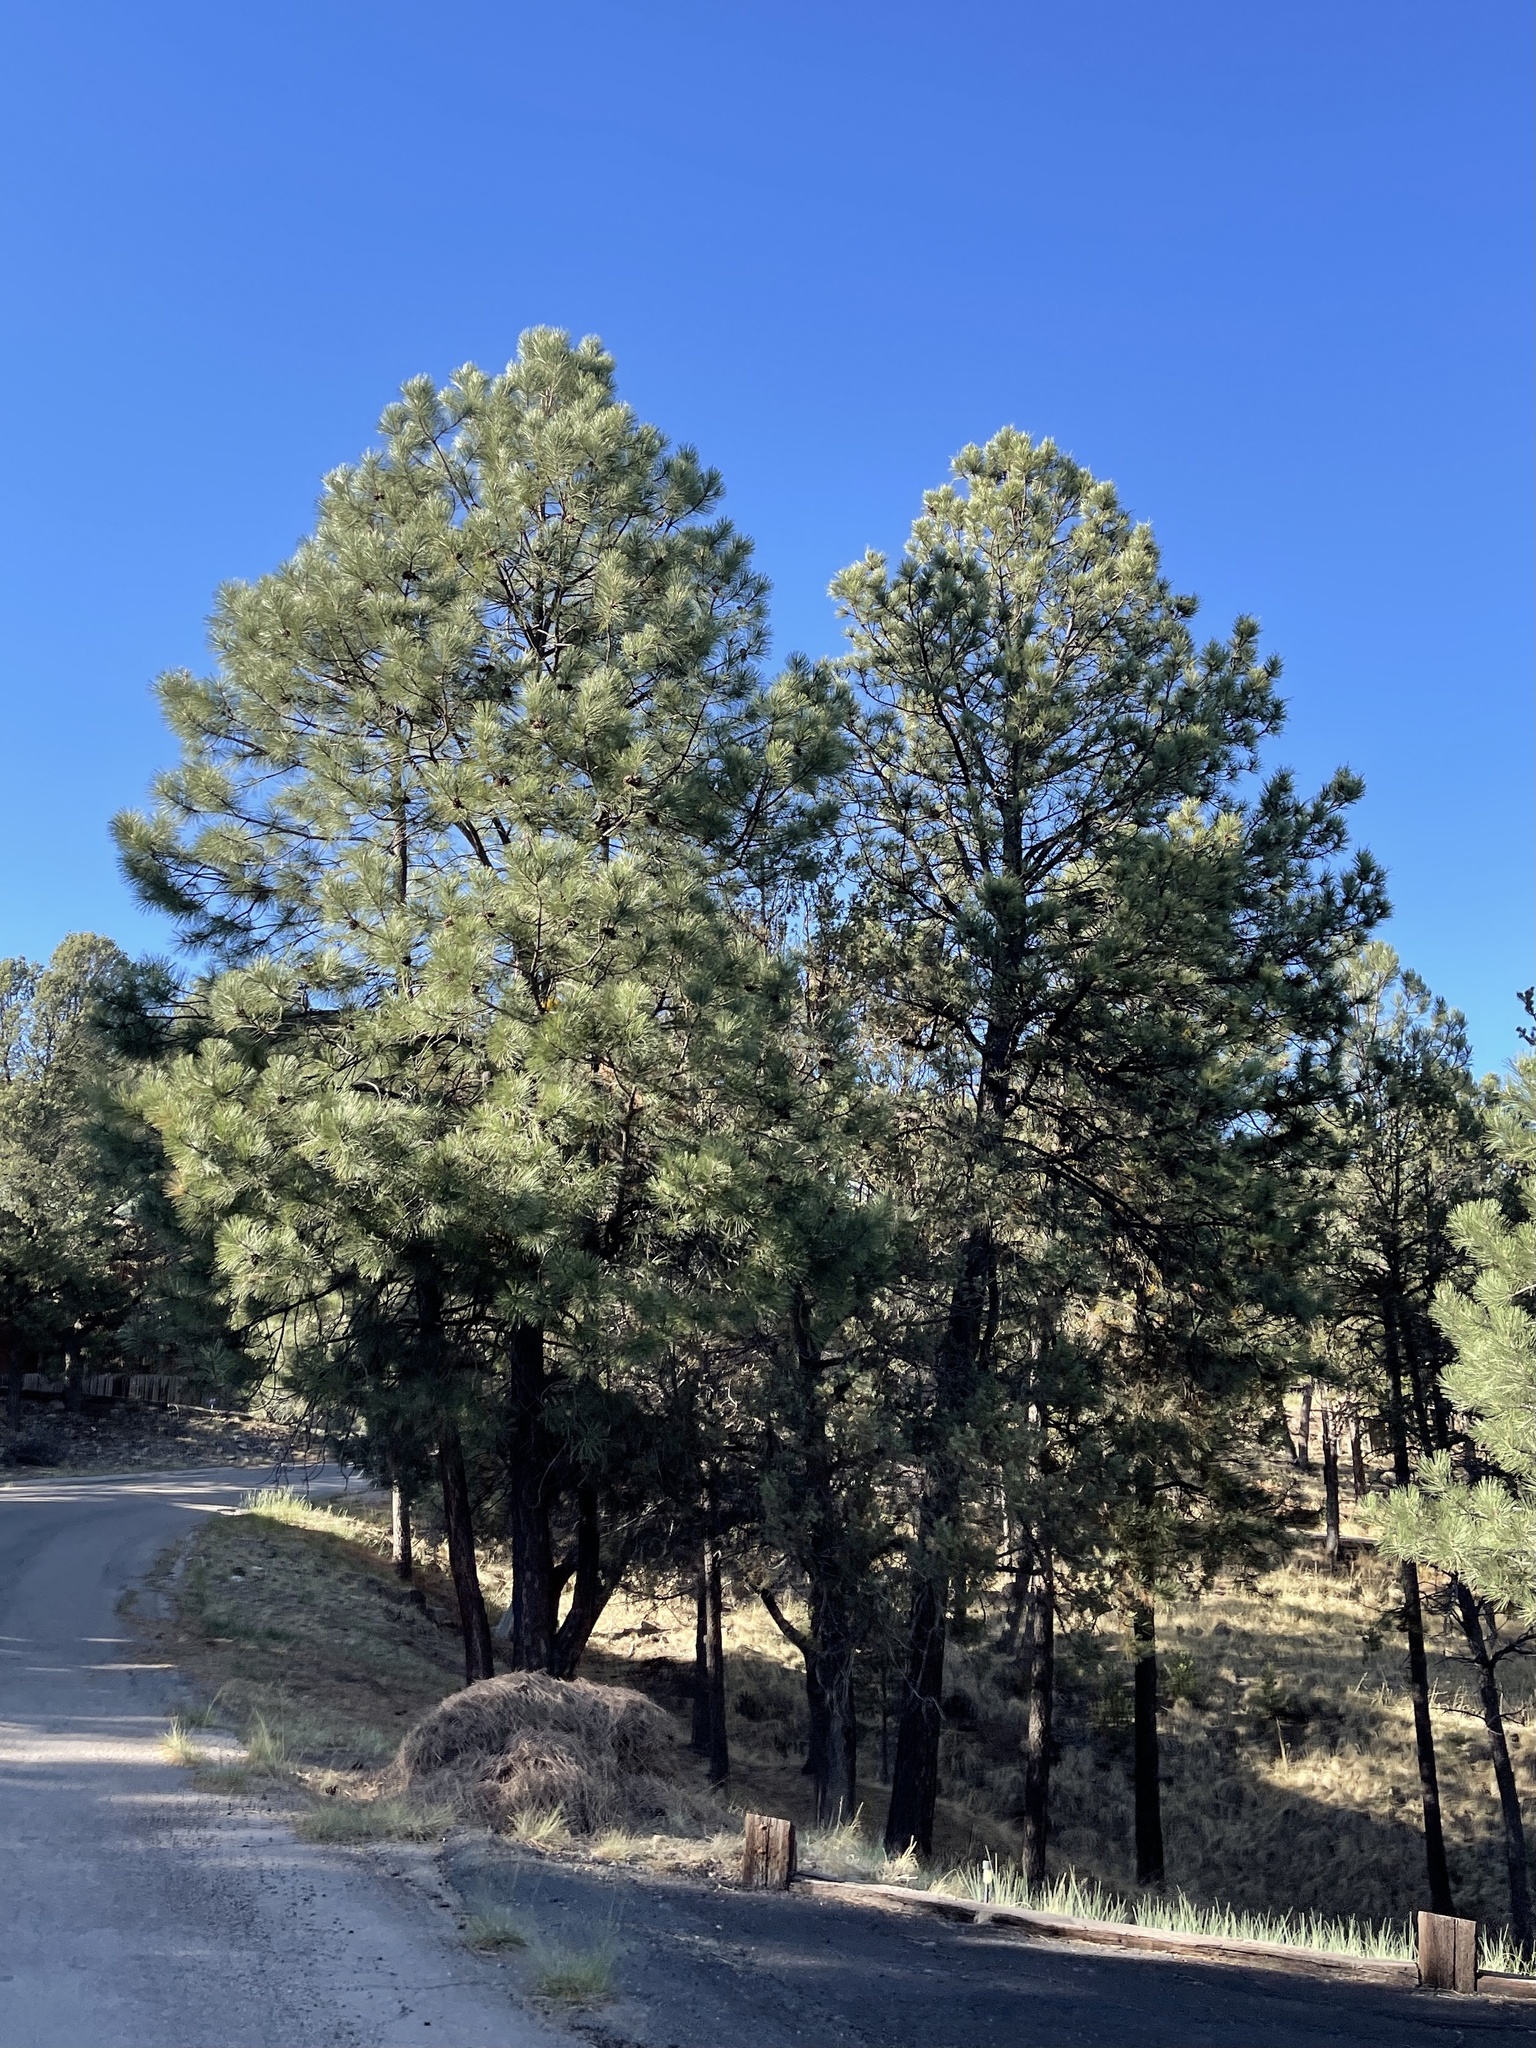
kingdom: Plantae
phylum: Tracheophyta
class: Pinopsida
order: Pinales
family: Pinaceae
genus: Pinus
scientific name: Pinus ponderosa
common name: Western yellow-pine
